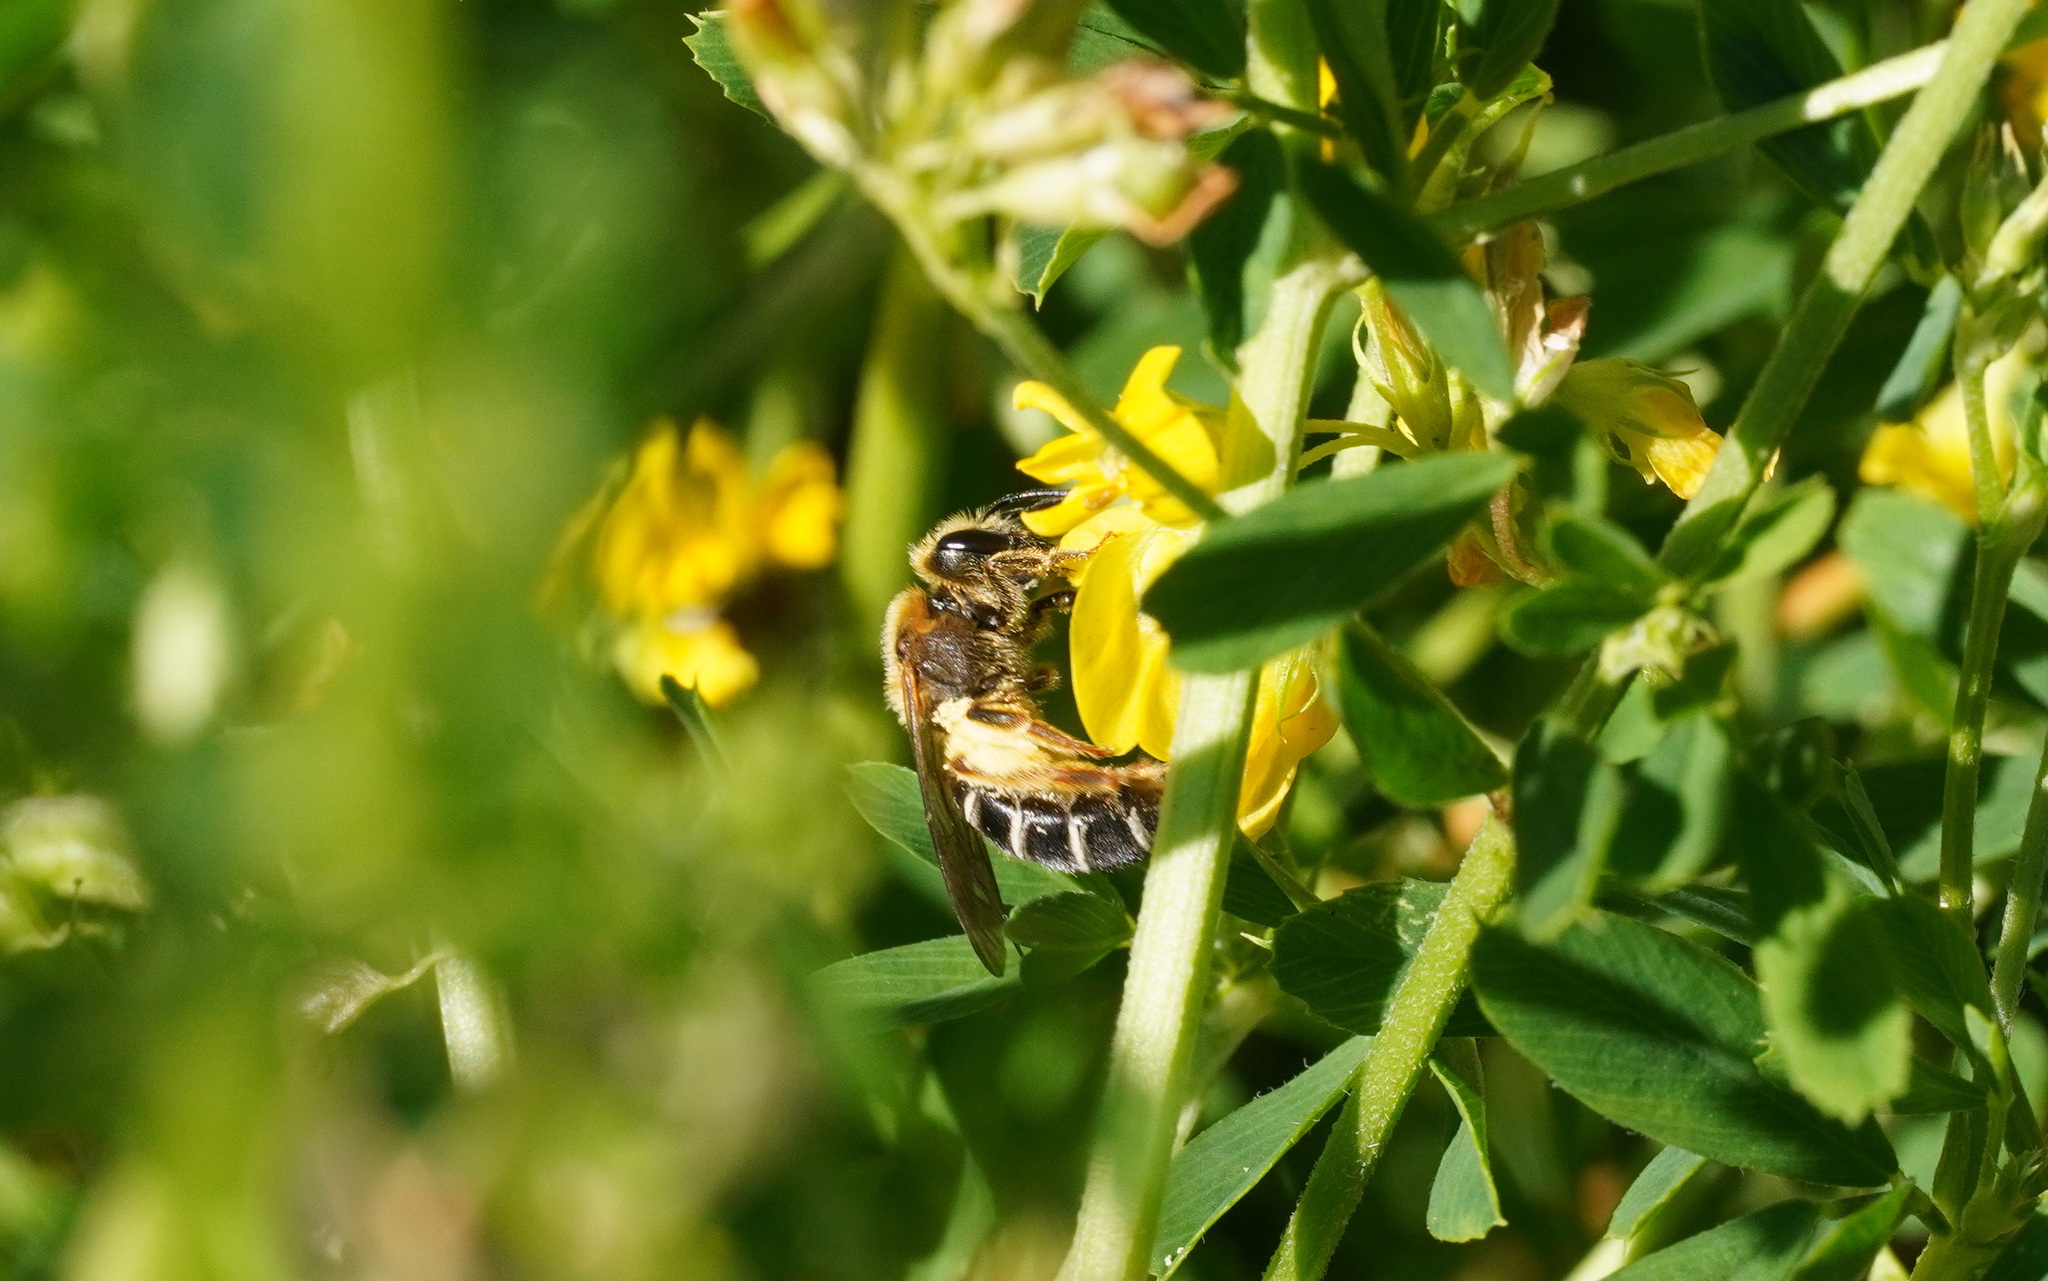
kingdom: Animalia
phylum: Arthropoda
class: Insecta
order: Hymenoptera
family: Halictidae
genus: Halictus
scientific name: Halictus rubicundus
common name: Orange-legged furrow bee
